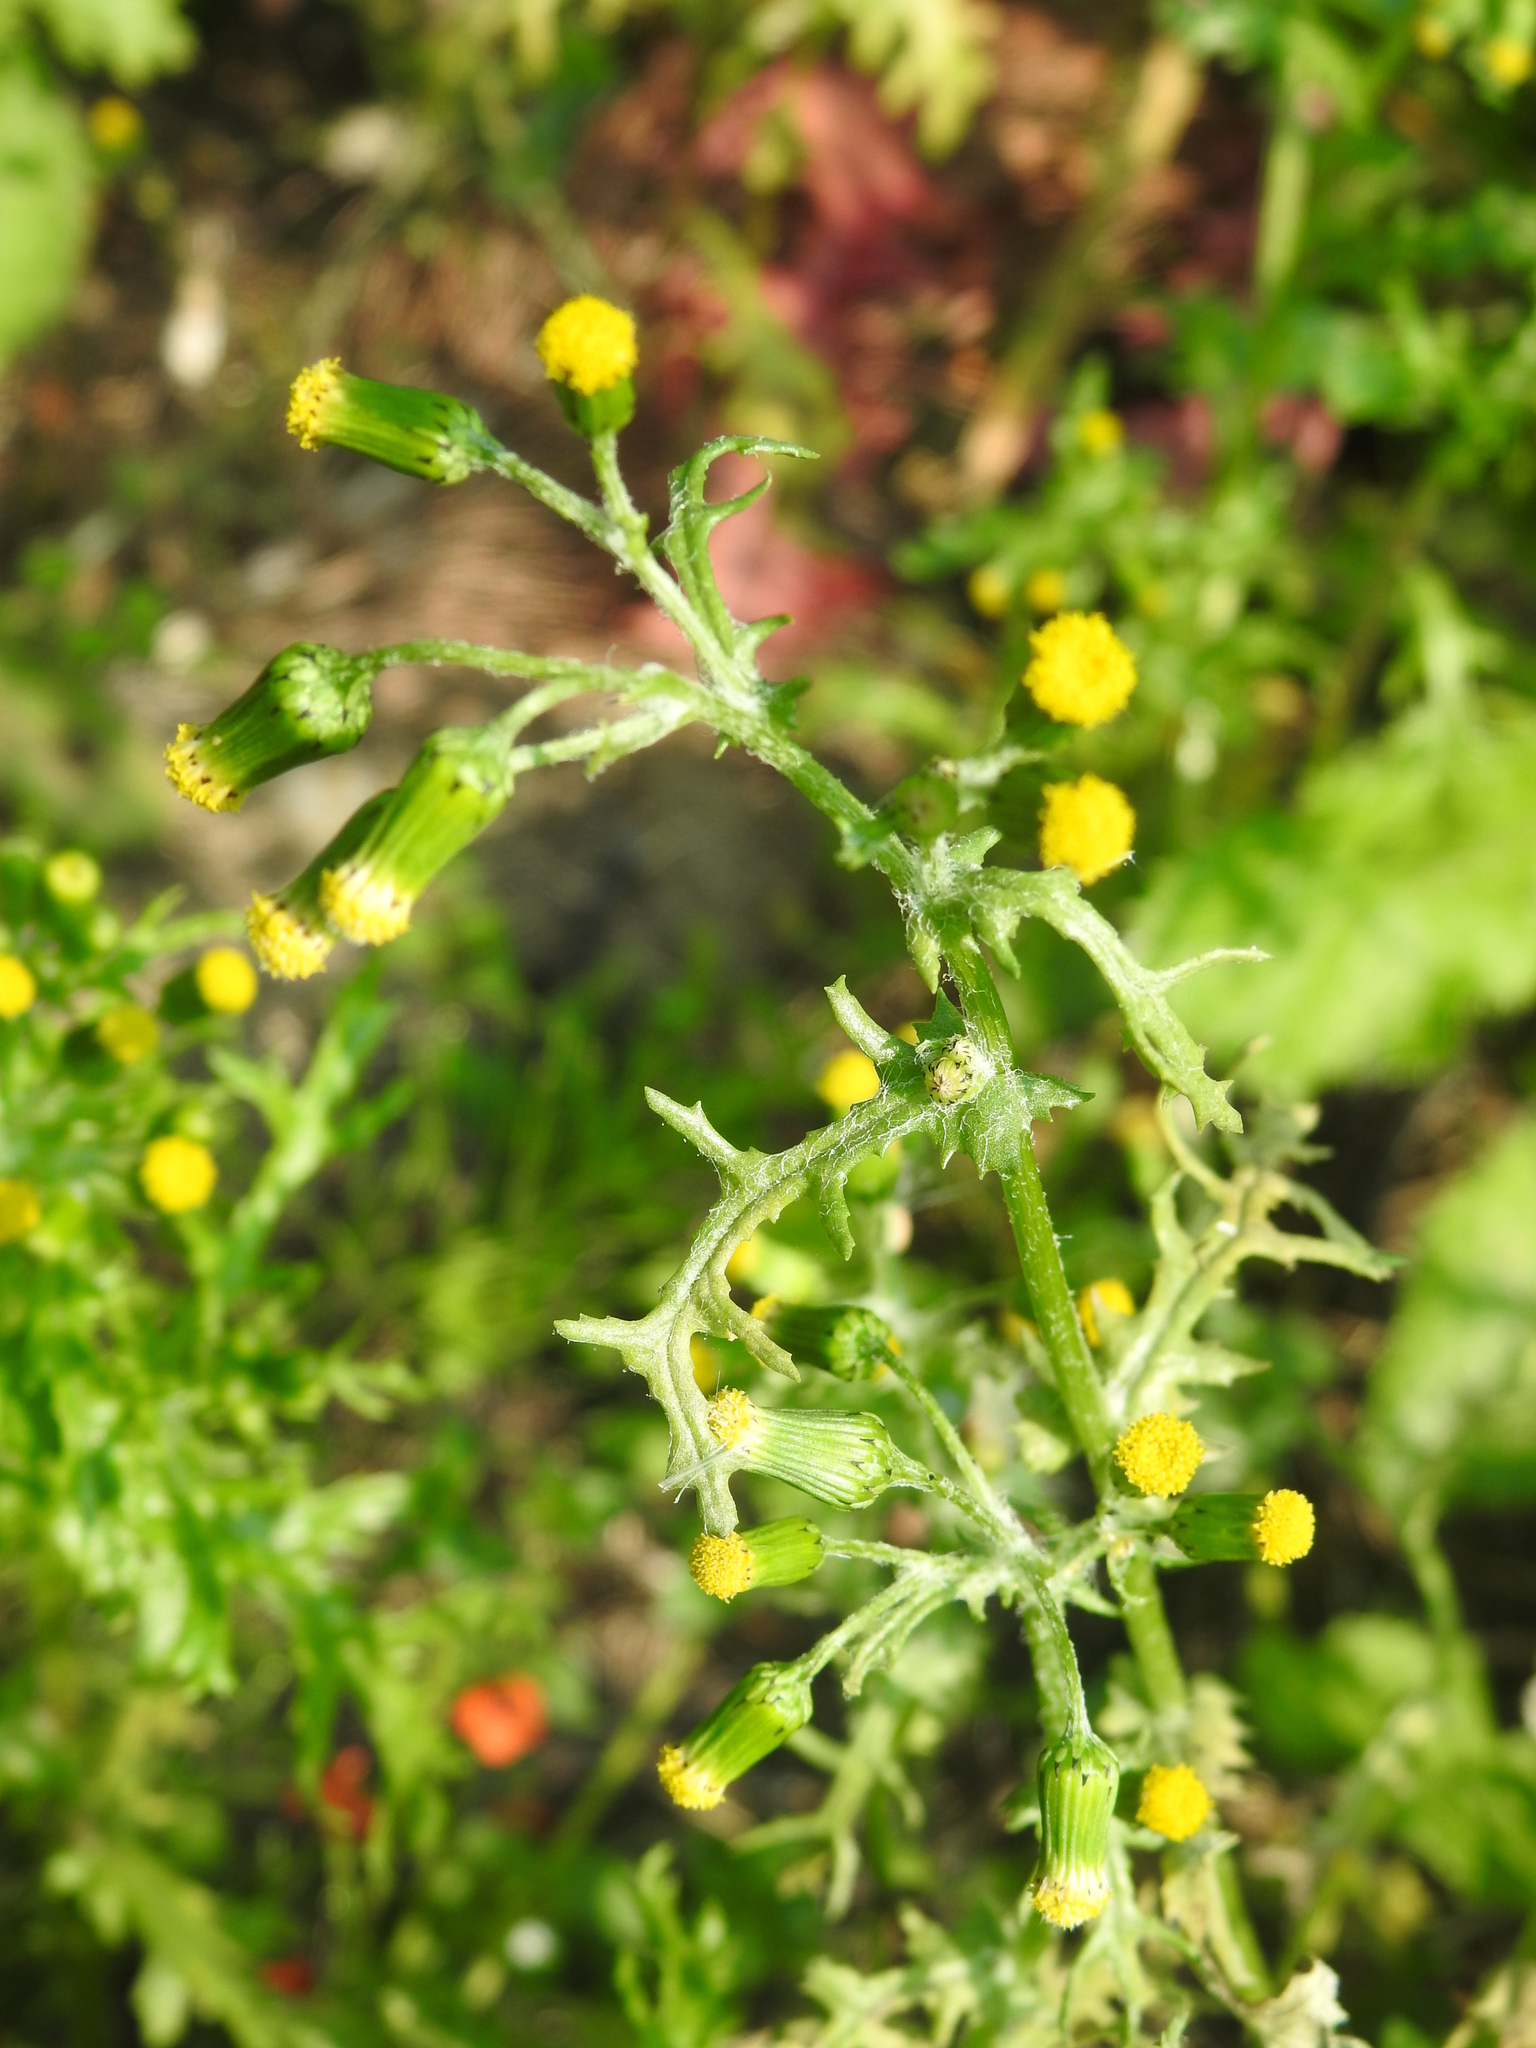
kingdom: Plantae
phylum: Tracheophyta
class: Magnoliopsida
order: Asterales
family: Asteraceae
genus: Senecio
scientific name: Senecio vulgaris
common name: Old-man-in-the-spring
